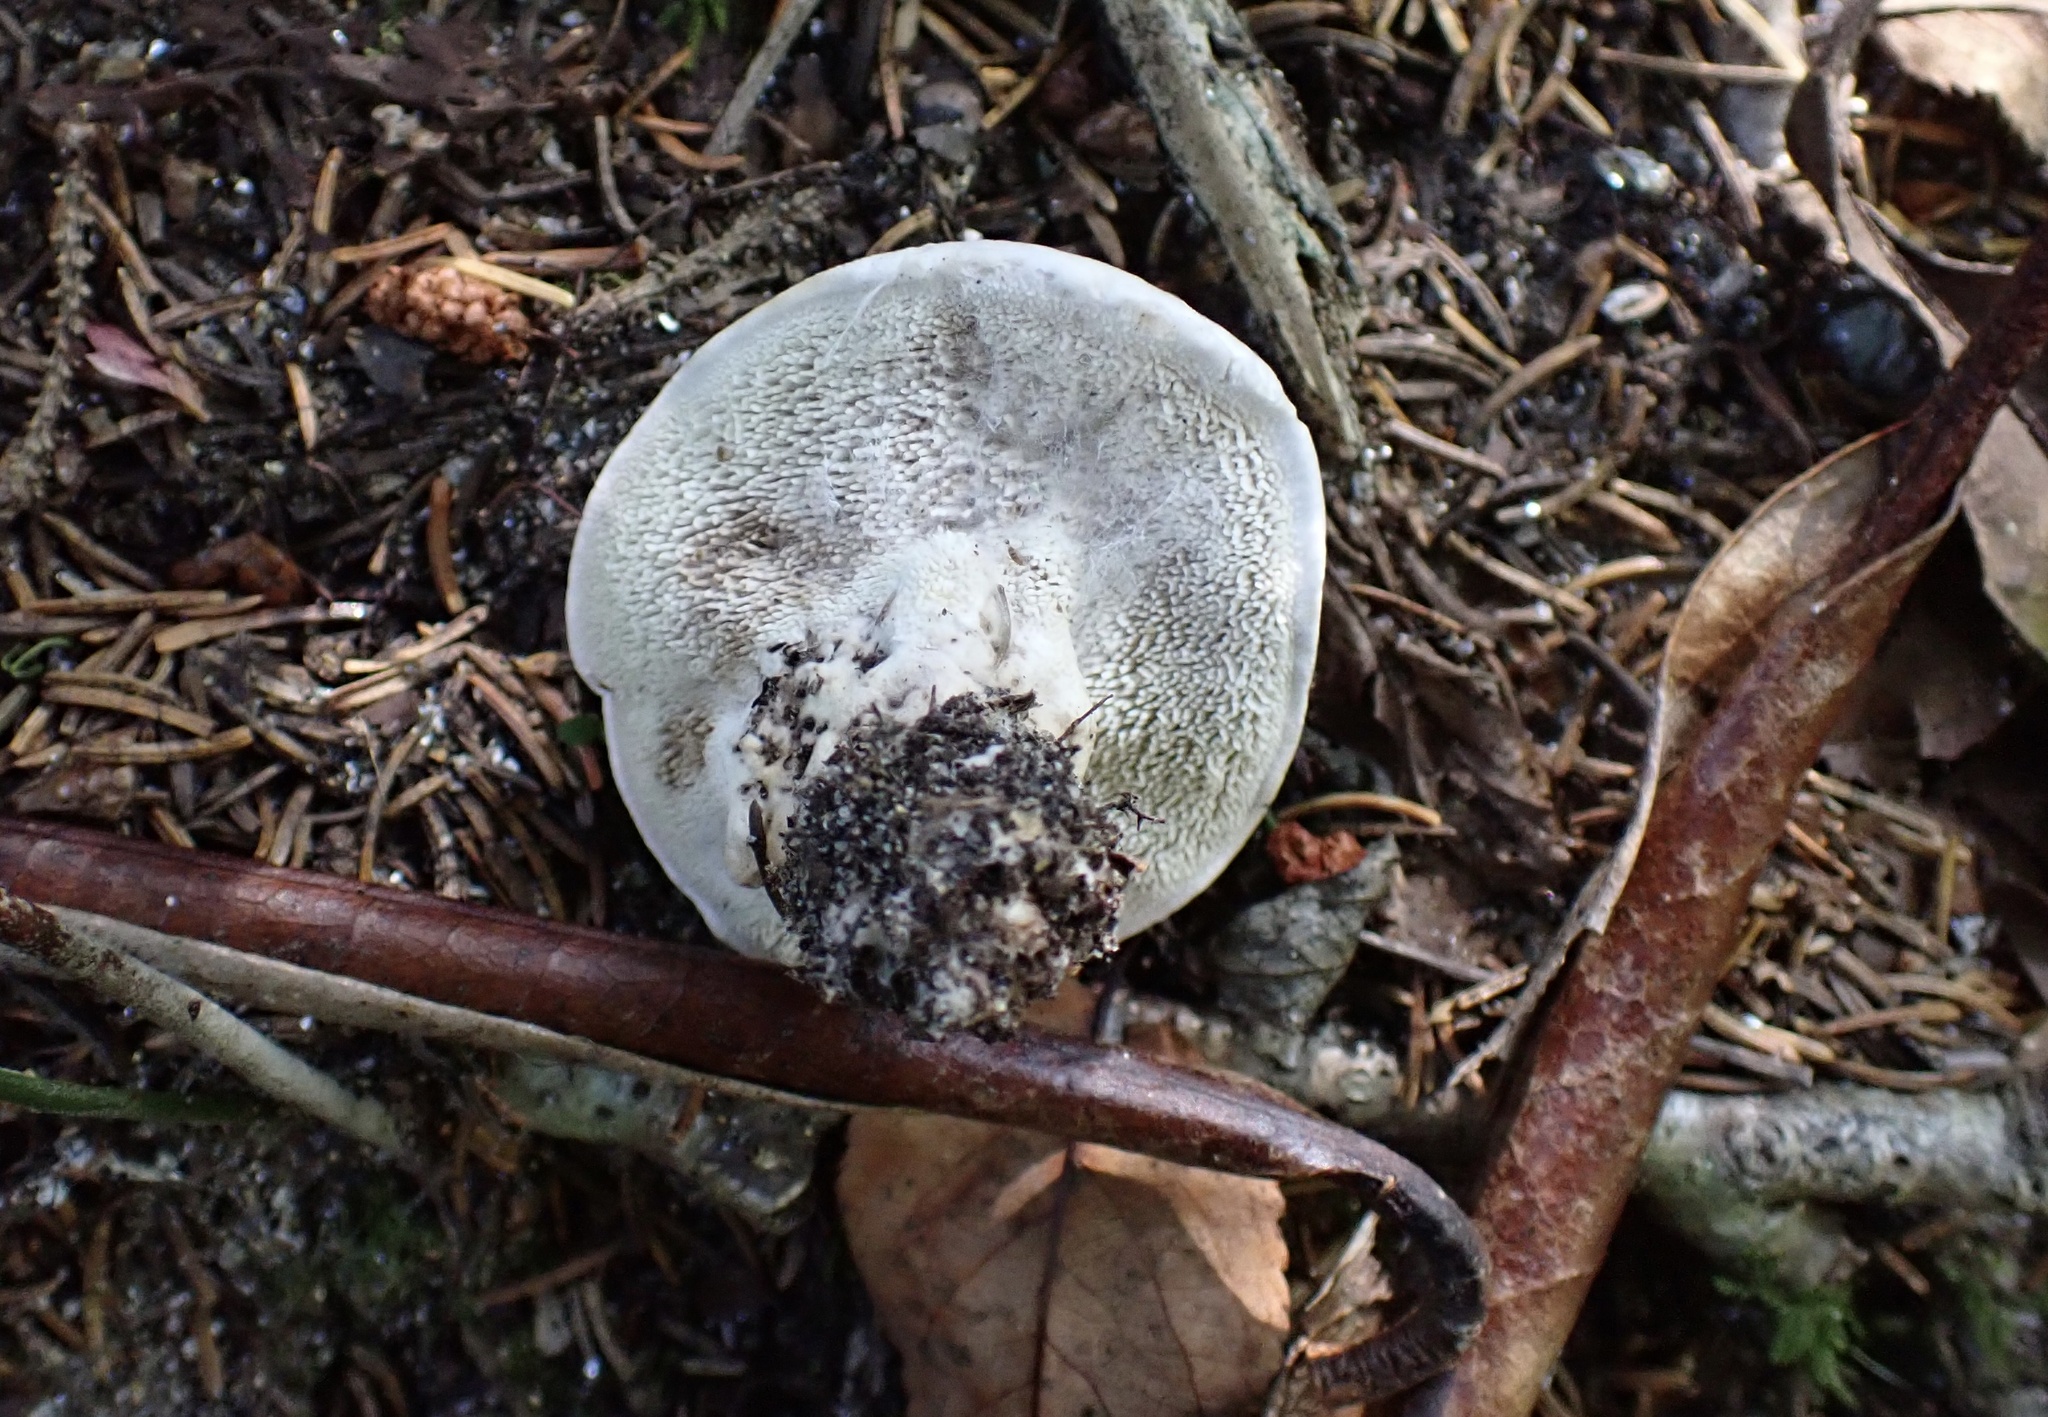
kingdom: Fungi
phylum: Basidiomycota
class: Agaricomycetes
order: Thelephorales
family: Thelephoraceae
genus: Phellodon
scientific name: Phellodon violascens
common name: Spruce tooth
